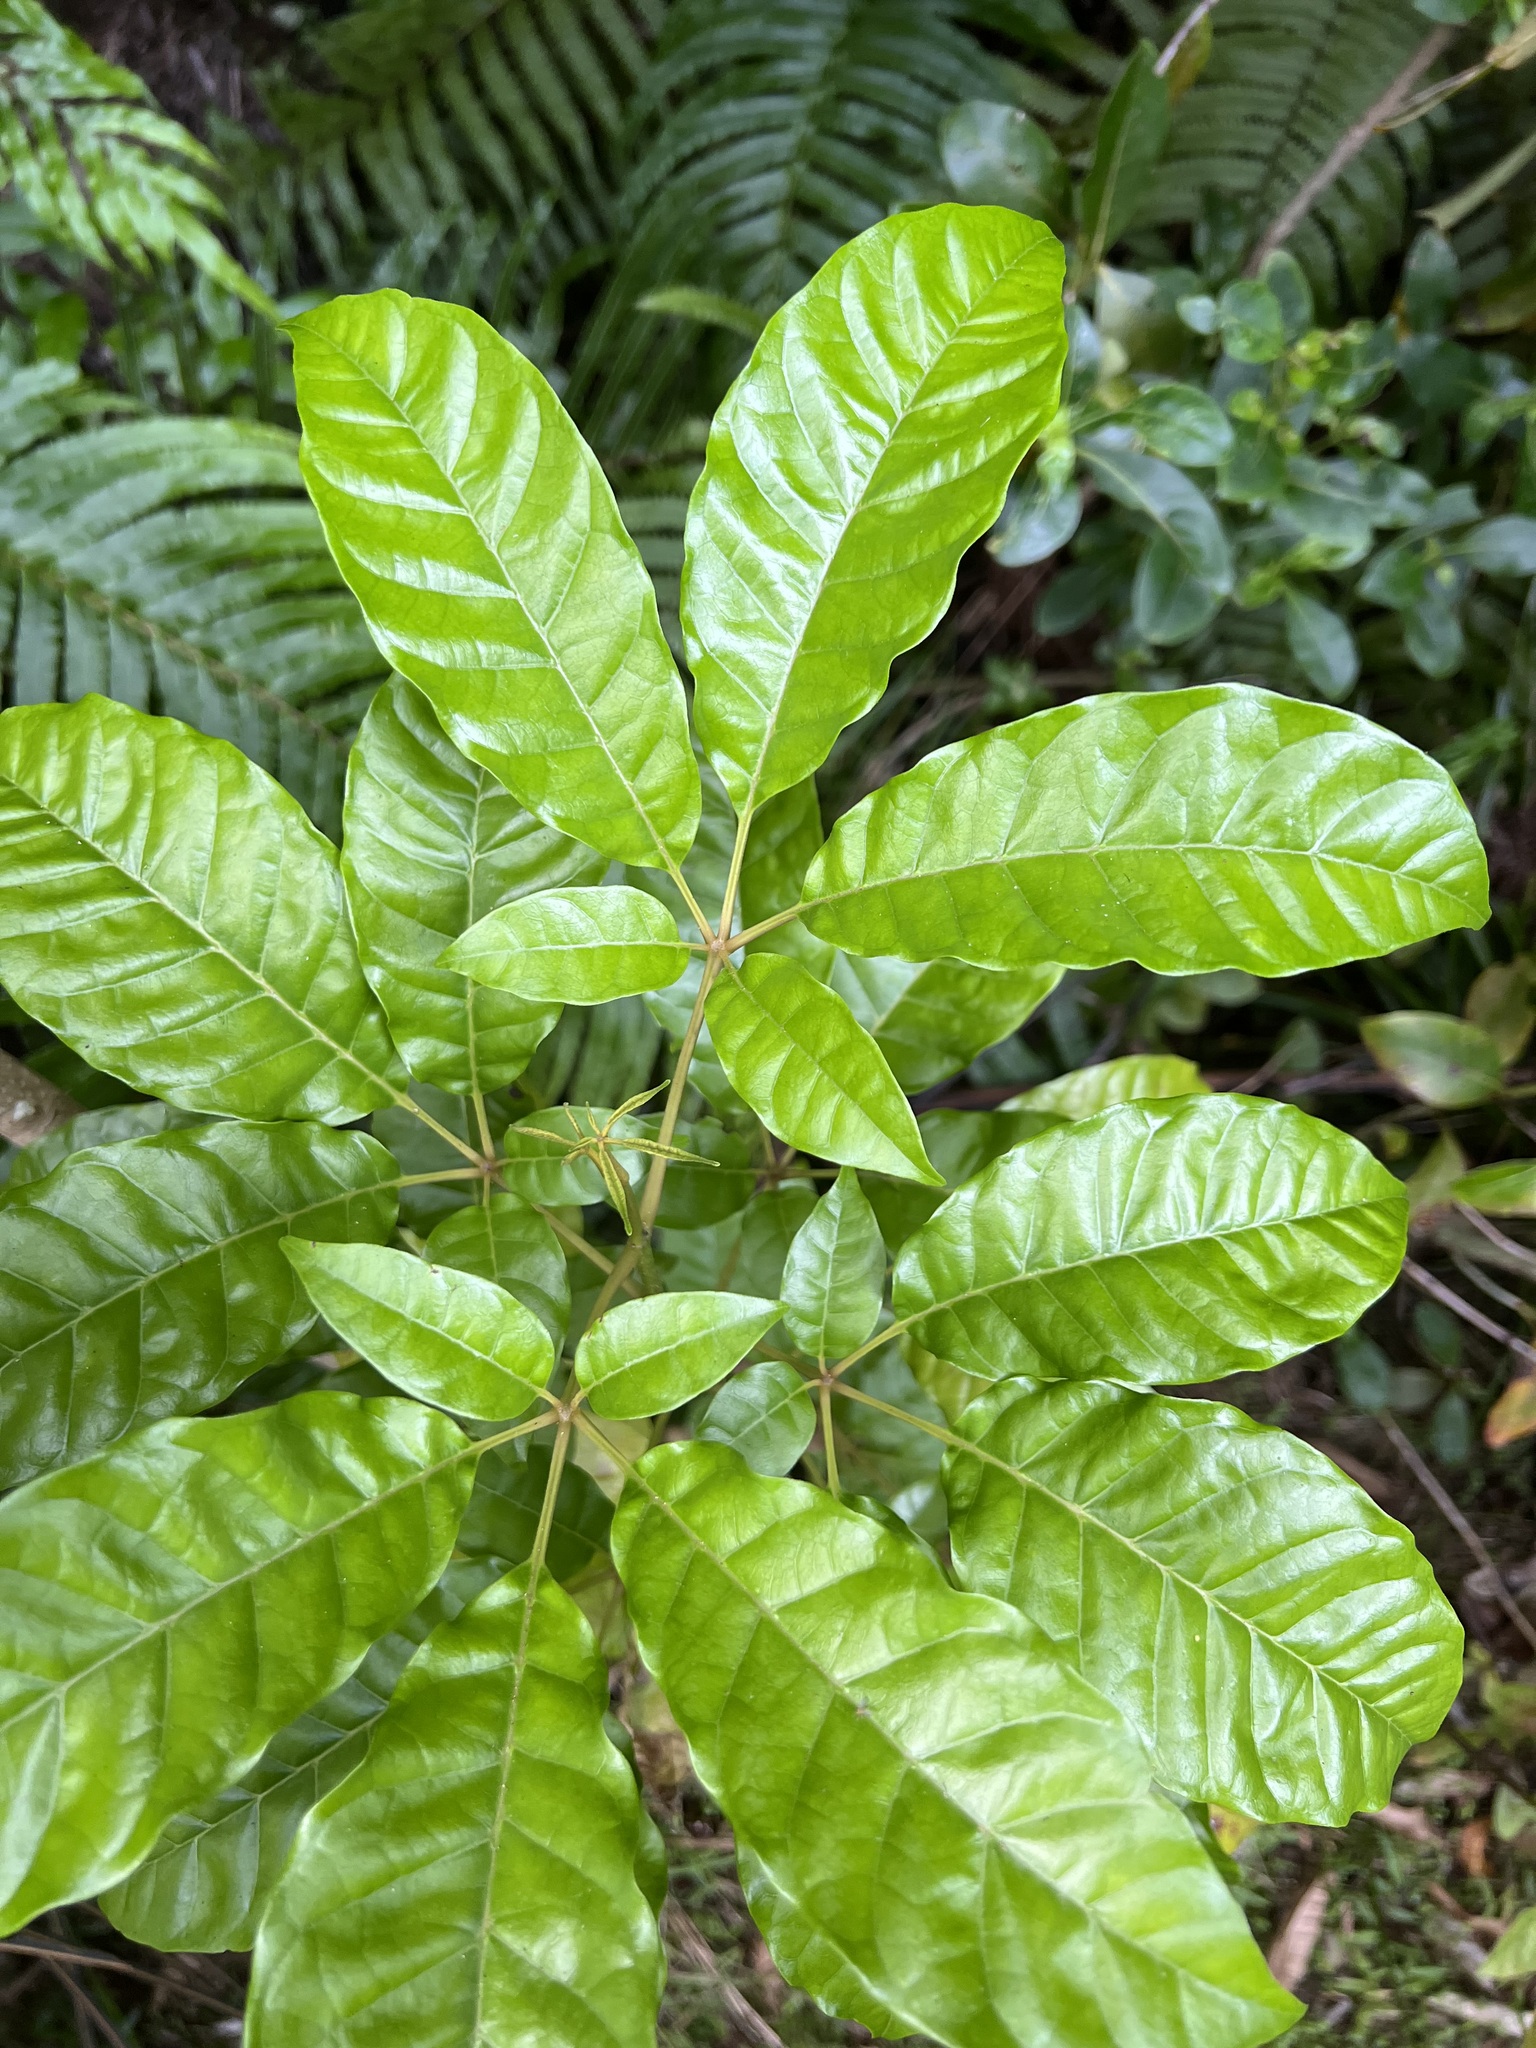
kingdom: Plantae
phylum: Tracheophyta
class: Magnoliopsida
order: Lamiales
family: Lamiaceae
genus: Vitex
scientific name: Vitex lucens
